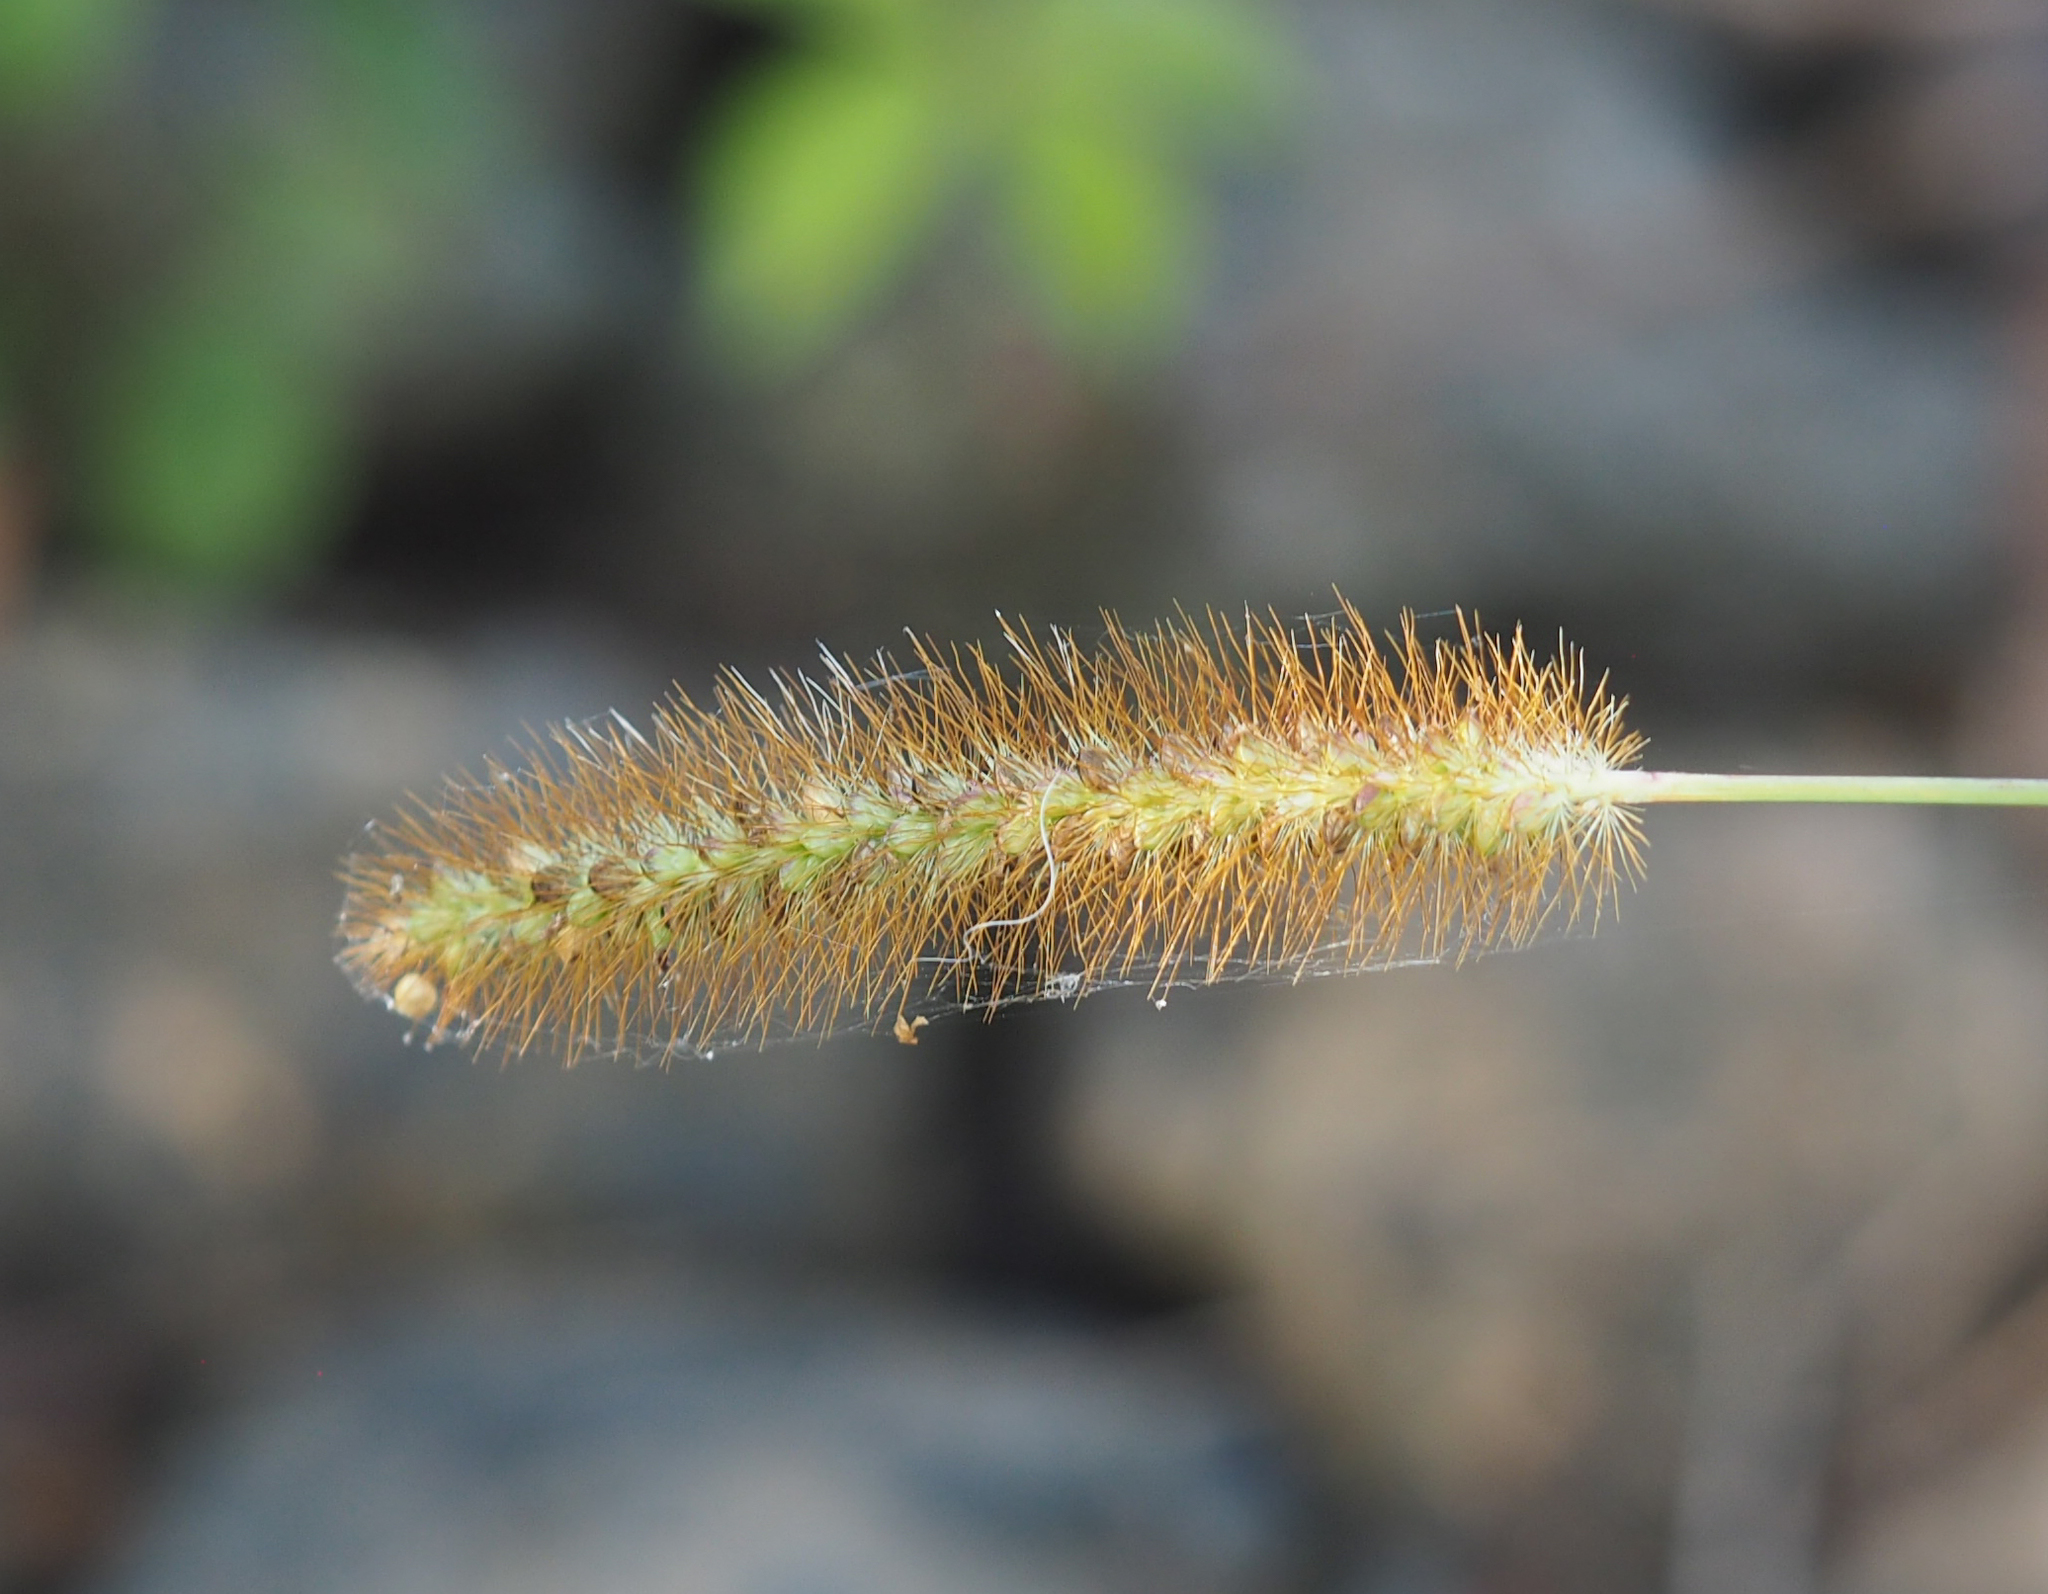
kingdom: Plantae
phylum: Tracheophyta
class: Liliopsida
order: Poales
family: Poaceae
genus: Setaria
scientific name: Setaria pumila
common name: Yellow bristle-grass
